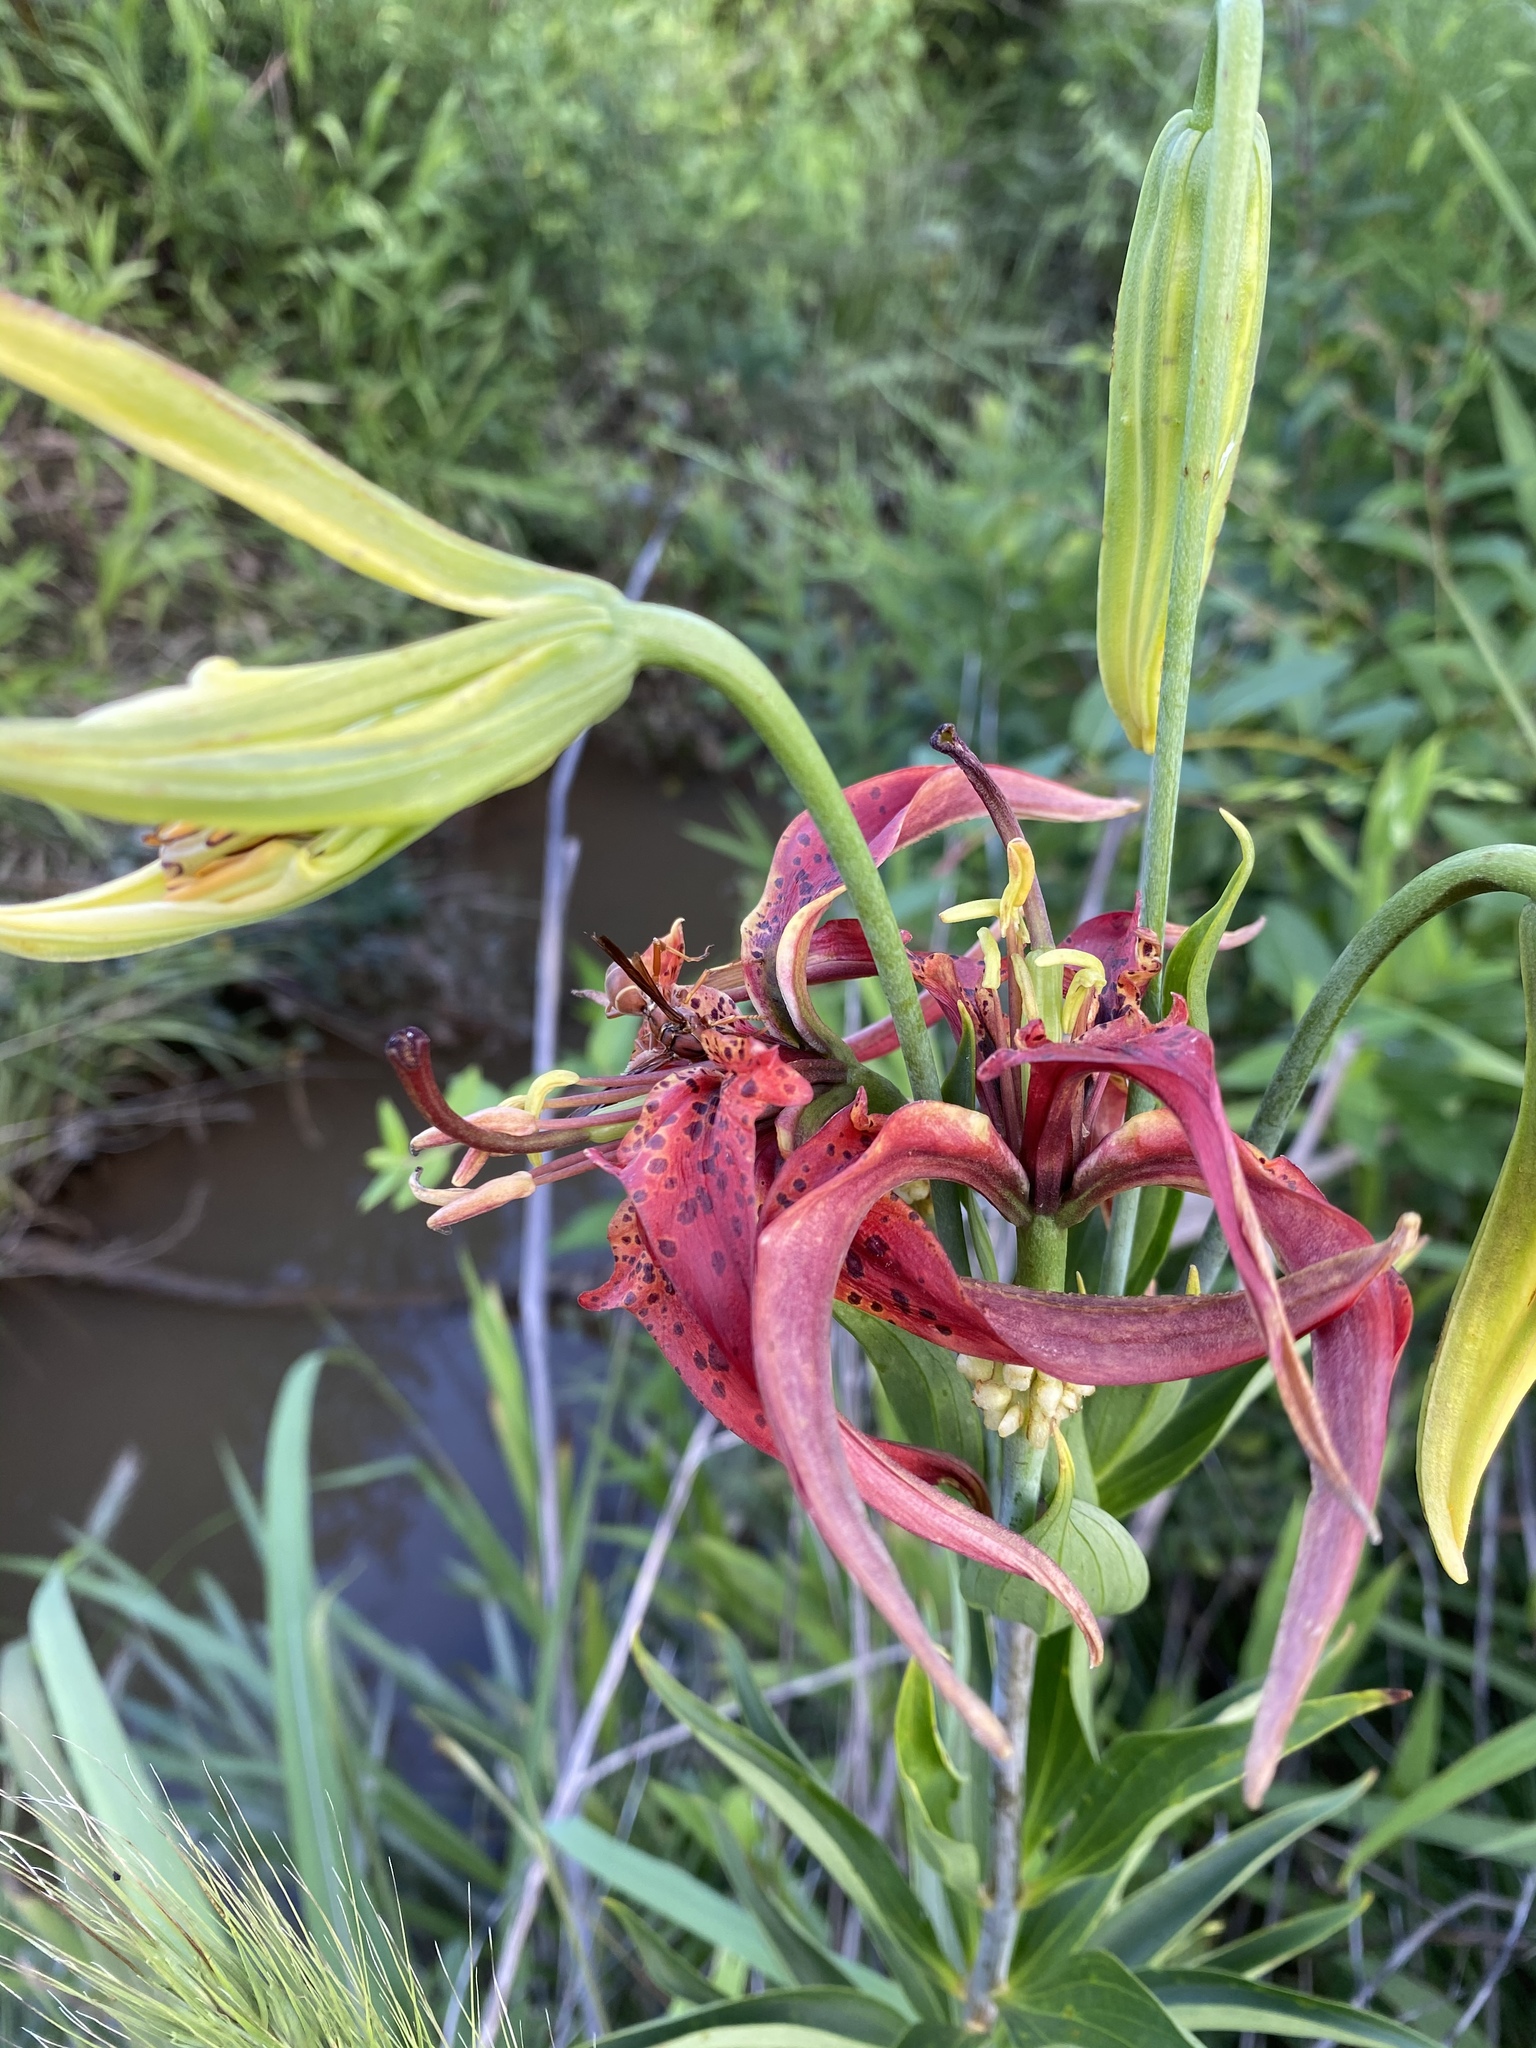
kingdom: Plantae
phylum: Tracheophyta
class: Liliopsida
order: Liliales
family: Liliaceae
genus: Lilium
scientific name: Lilium superbum
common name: American turk's-cap lily
